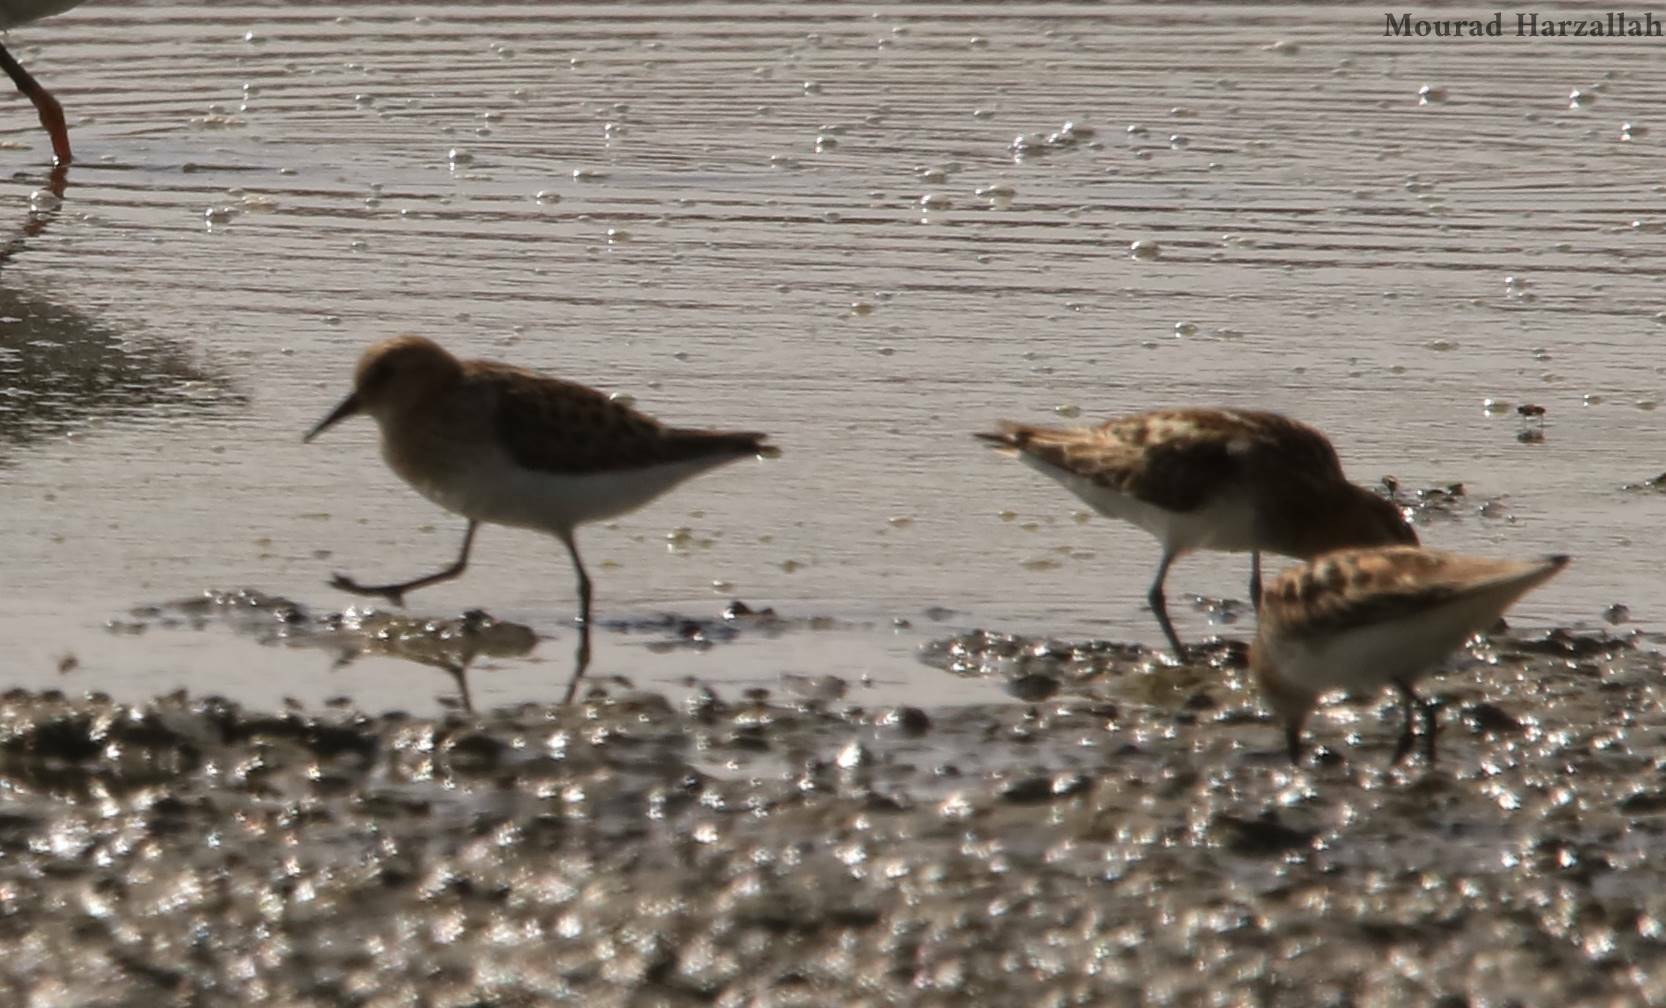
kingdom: Animalia
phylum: Chordata
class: Aves
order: Charadriiformes
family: Scolopacidae
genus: Calidris
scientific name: Calidris temminckii
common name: Temminck's stint
